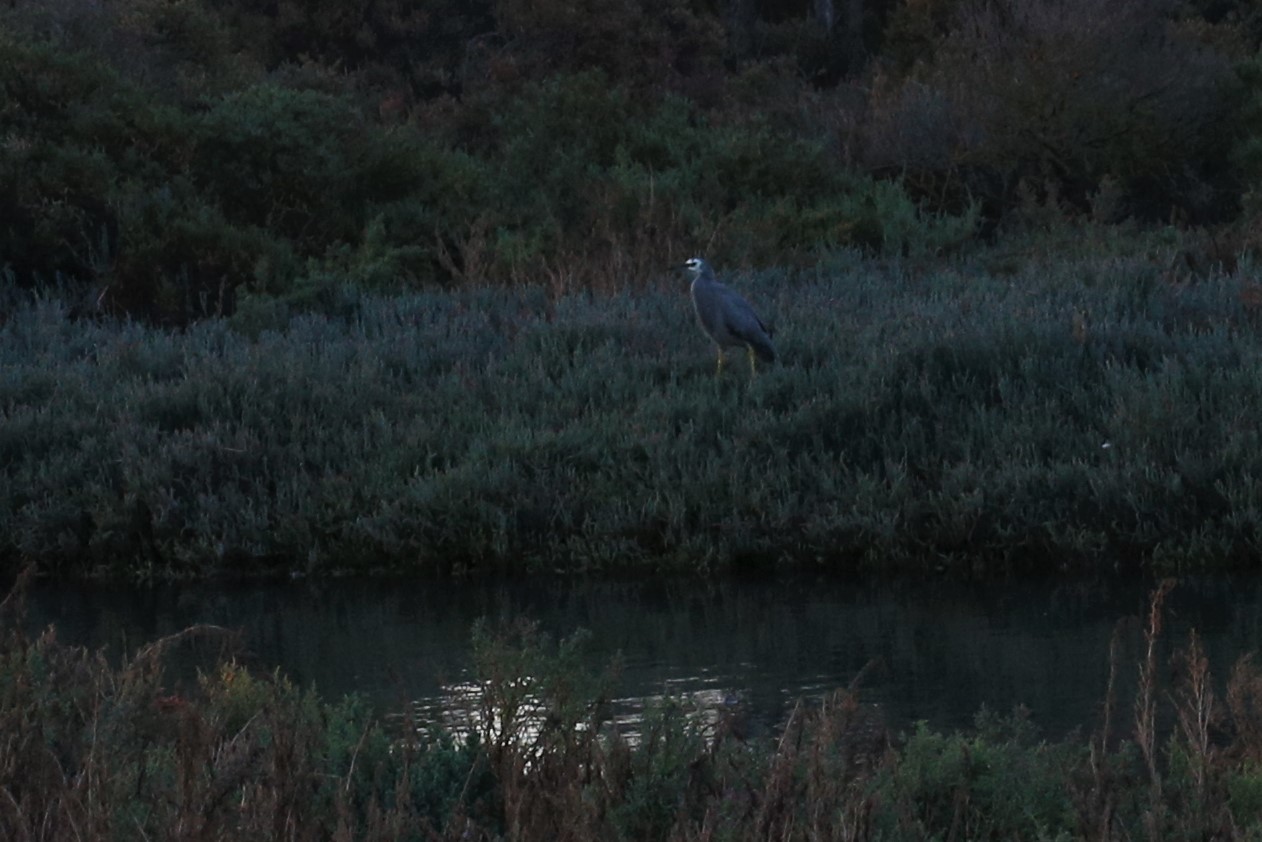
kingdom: Animalia
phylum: Chordata
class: Aves
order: Pelecaniformes
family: Ardeidae
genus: Egretta
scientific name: Egretta novaehollandiae
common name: White-faced heron
